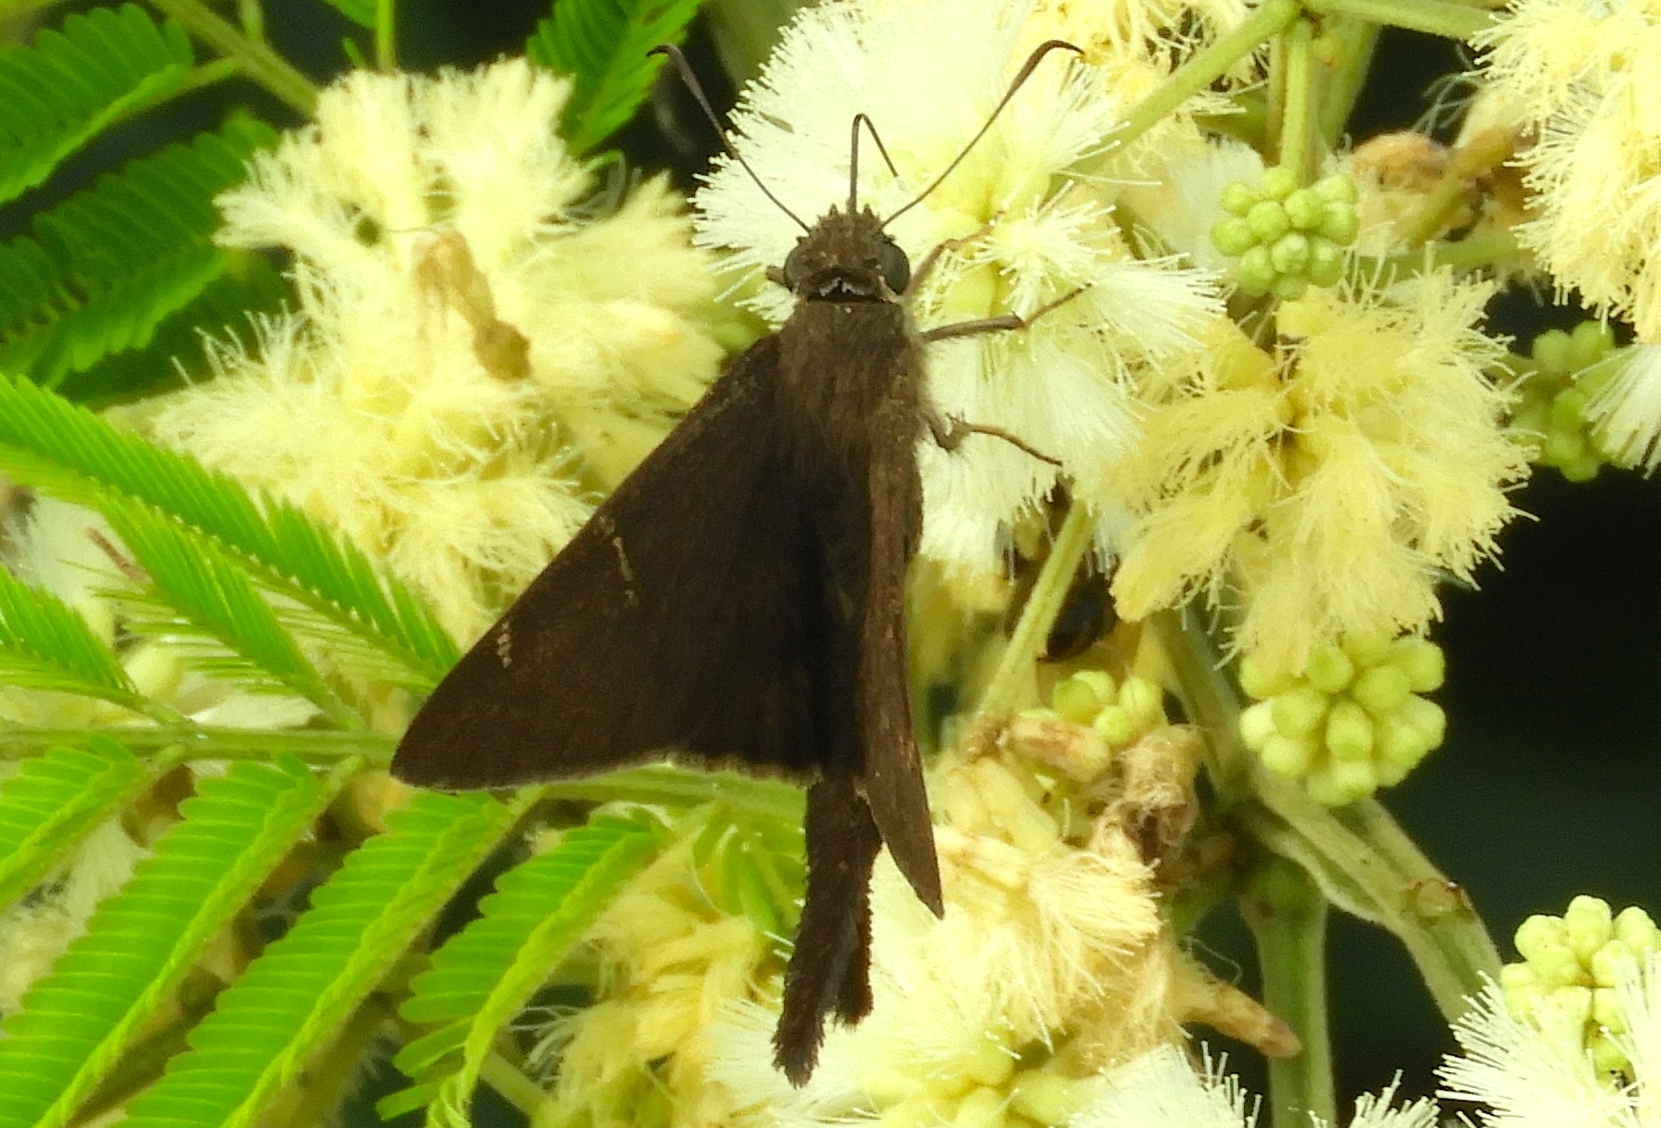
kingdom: Animalia
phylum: Arthropoda
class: Insecta
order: Lepidoptera
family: Hesperiidae
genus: Urbanus
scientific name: Urbanus procne
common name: Brown longtail
